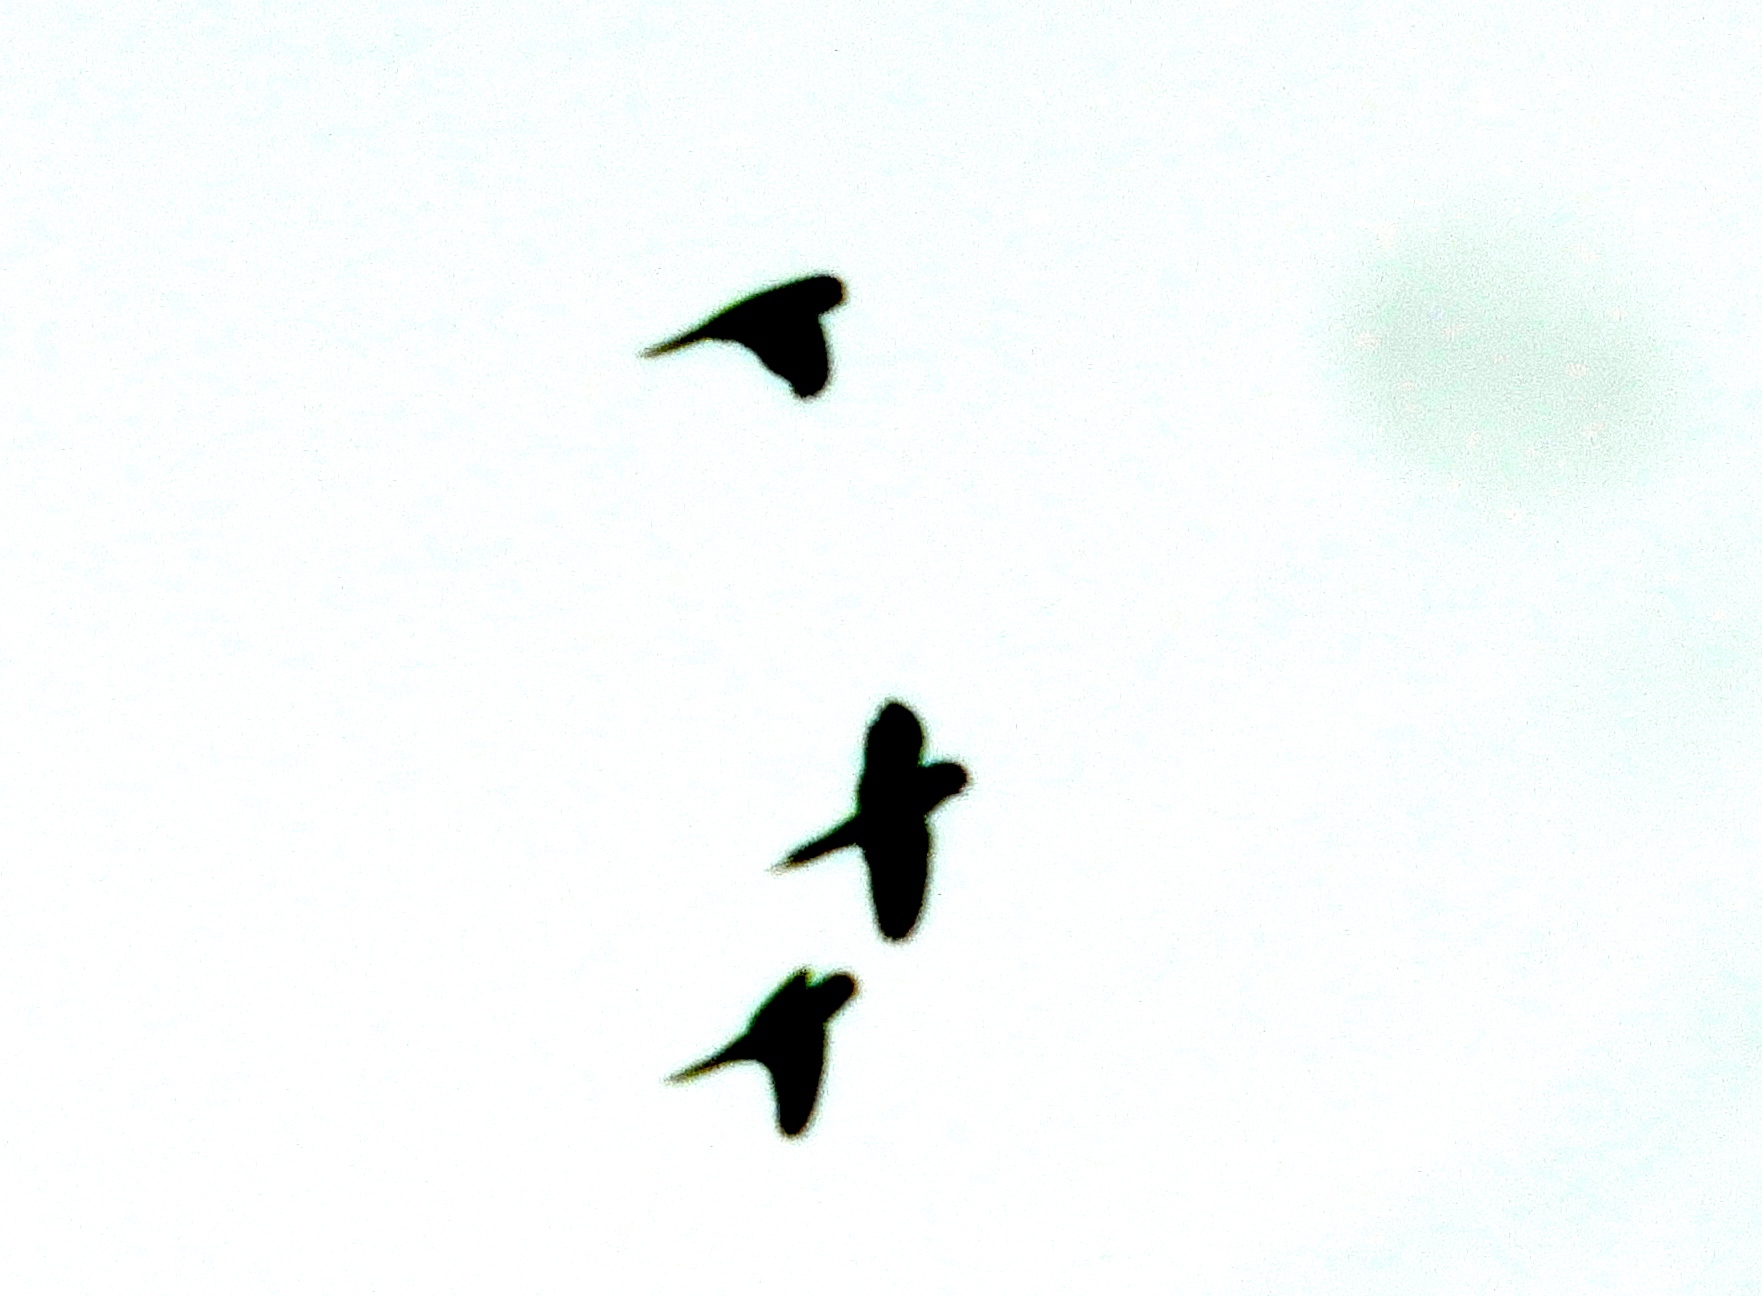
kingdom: Animalia
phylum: Chordata
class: Aves
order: Psittaciformes
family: Psittacidae
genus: Aratinga
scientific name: Aratinga canicularis
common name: Orange-fronted parakeet
